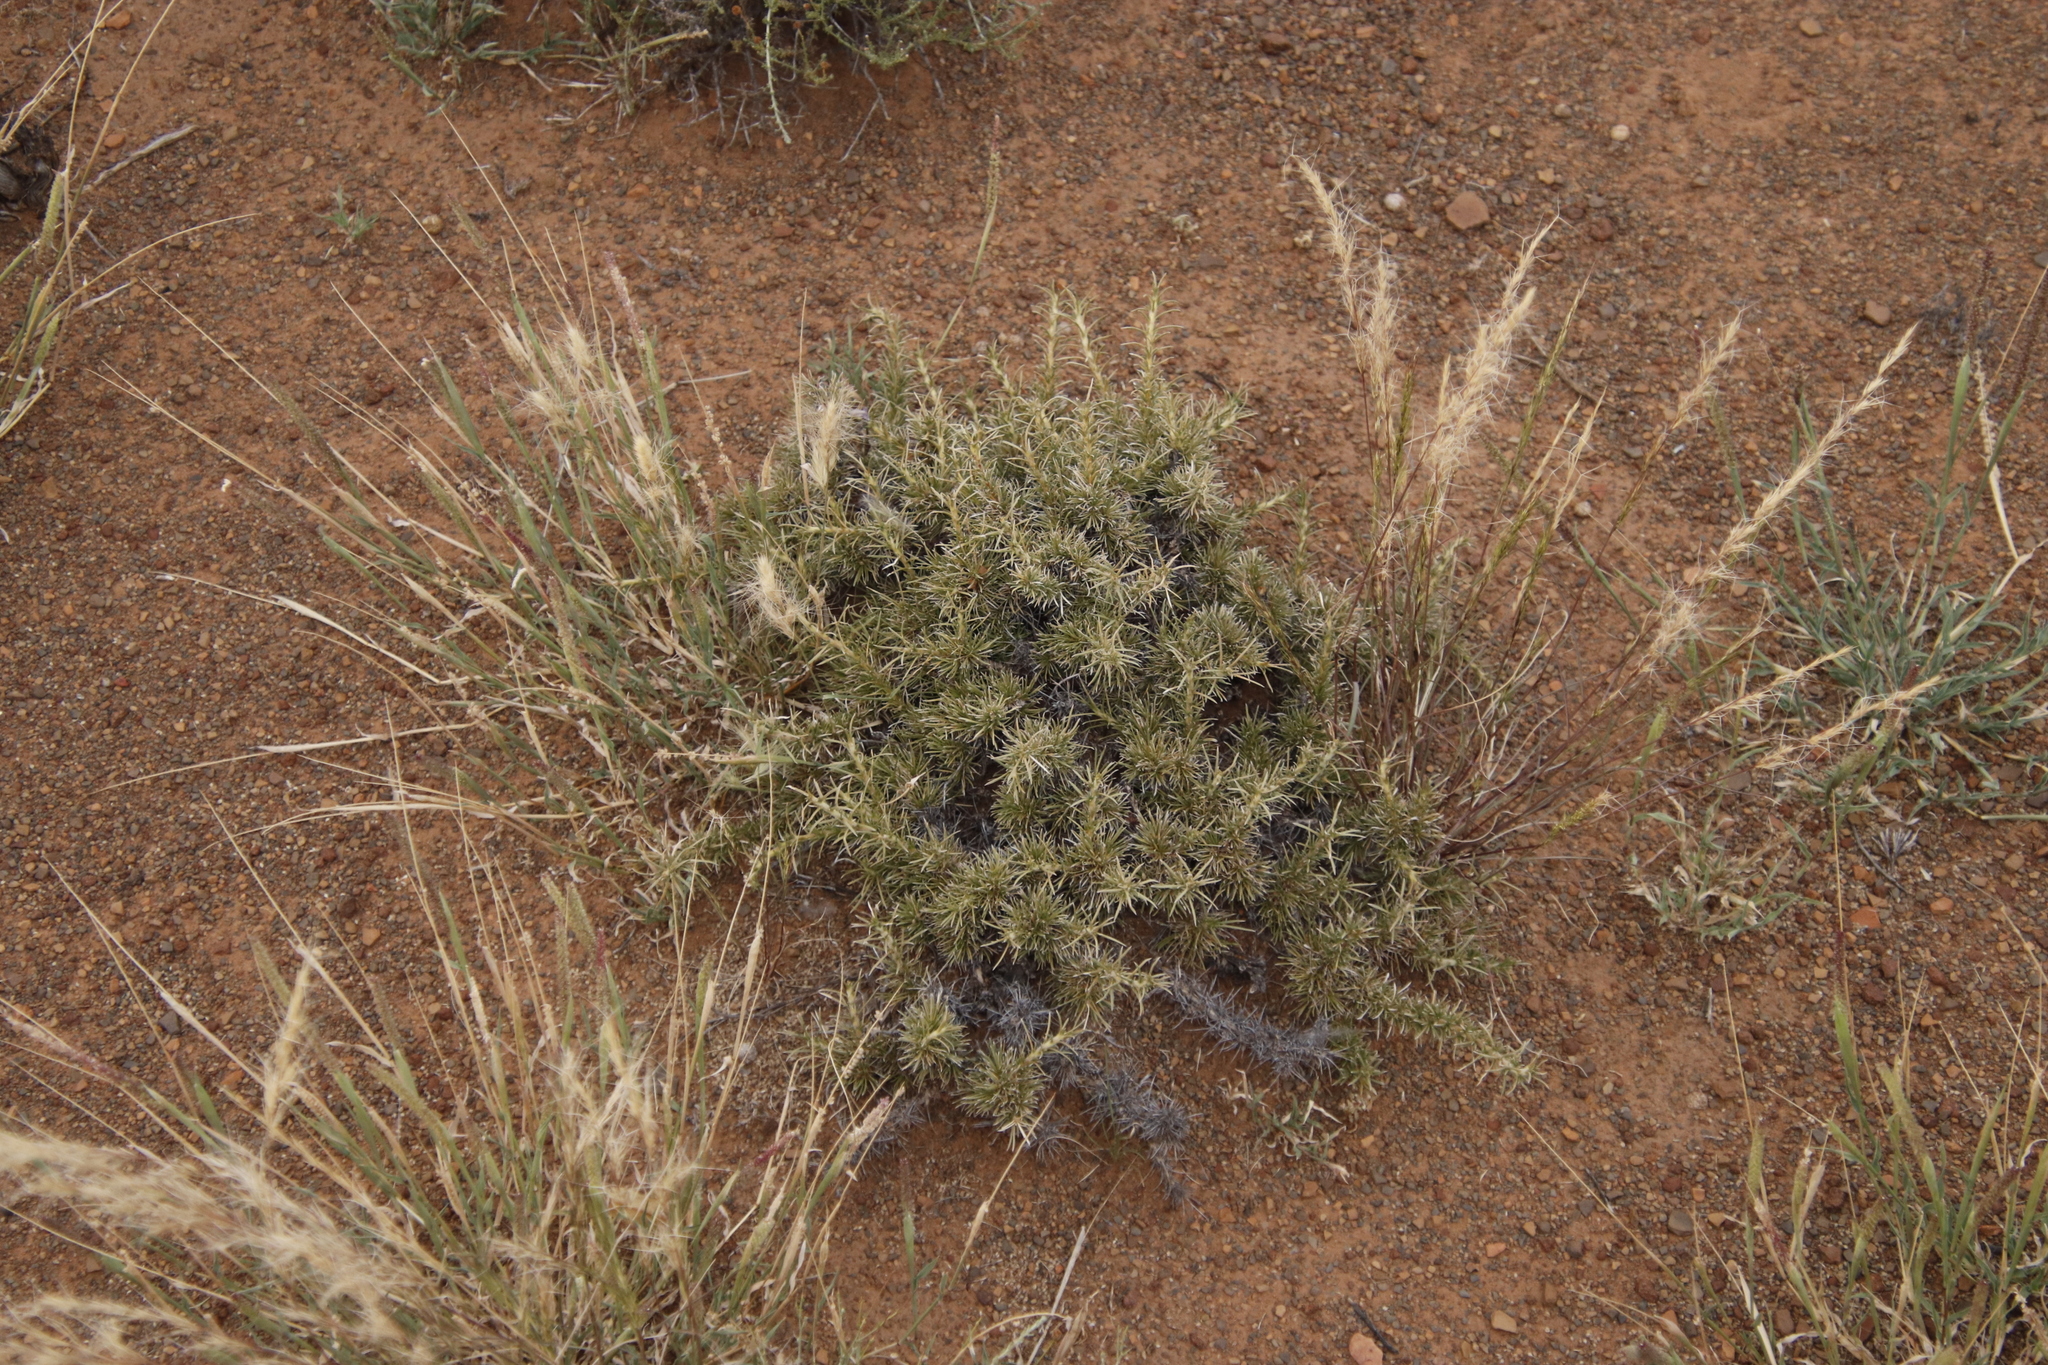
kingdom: Plantae
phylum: Tracheophyta
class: Magnoliopsida
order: Lamiales
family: Scrophulariaceae
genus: Aptosimum
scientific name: Aptosimum spinescens
